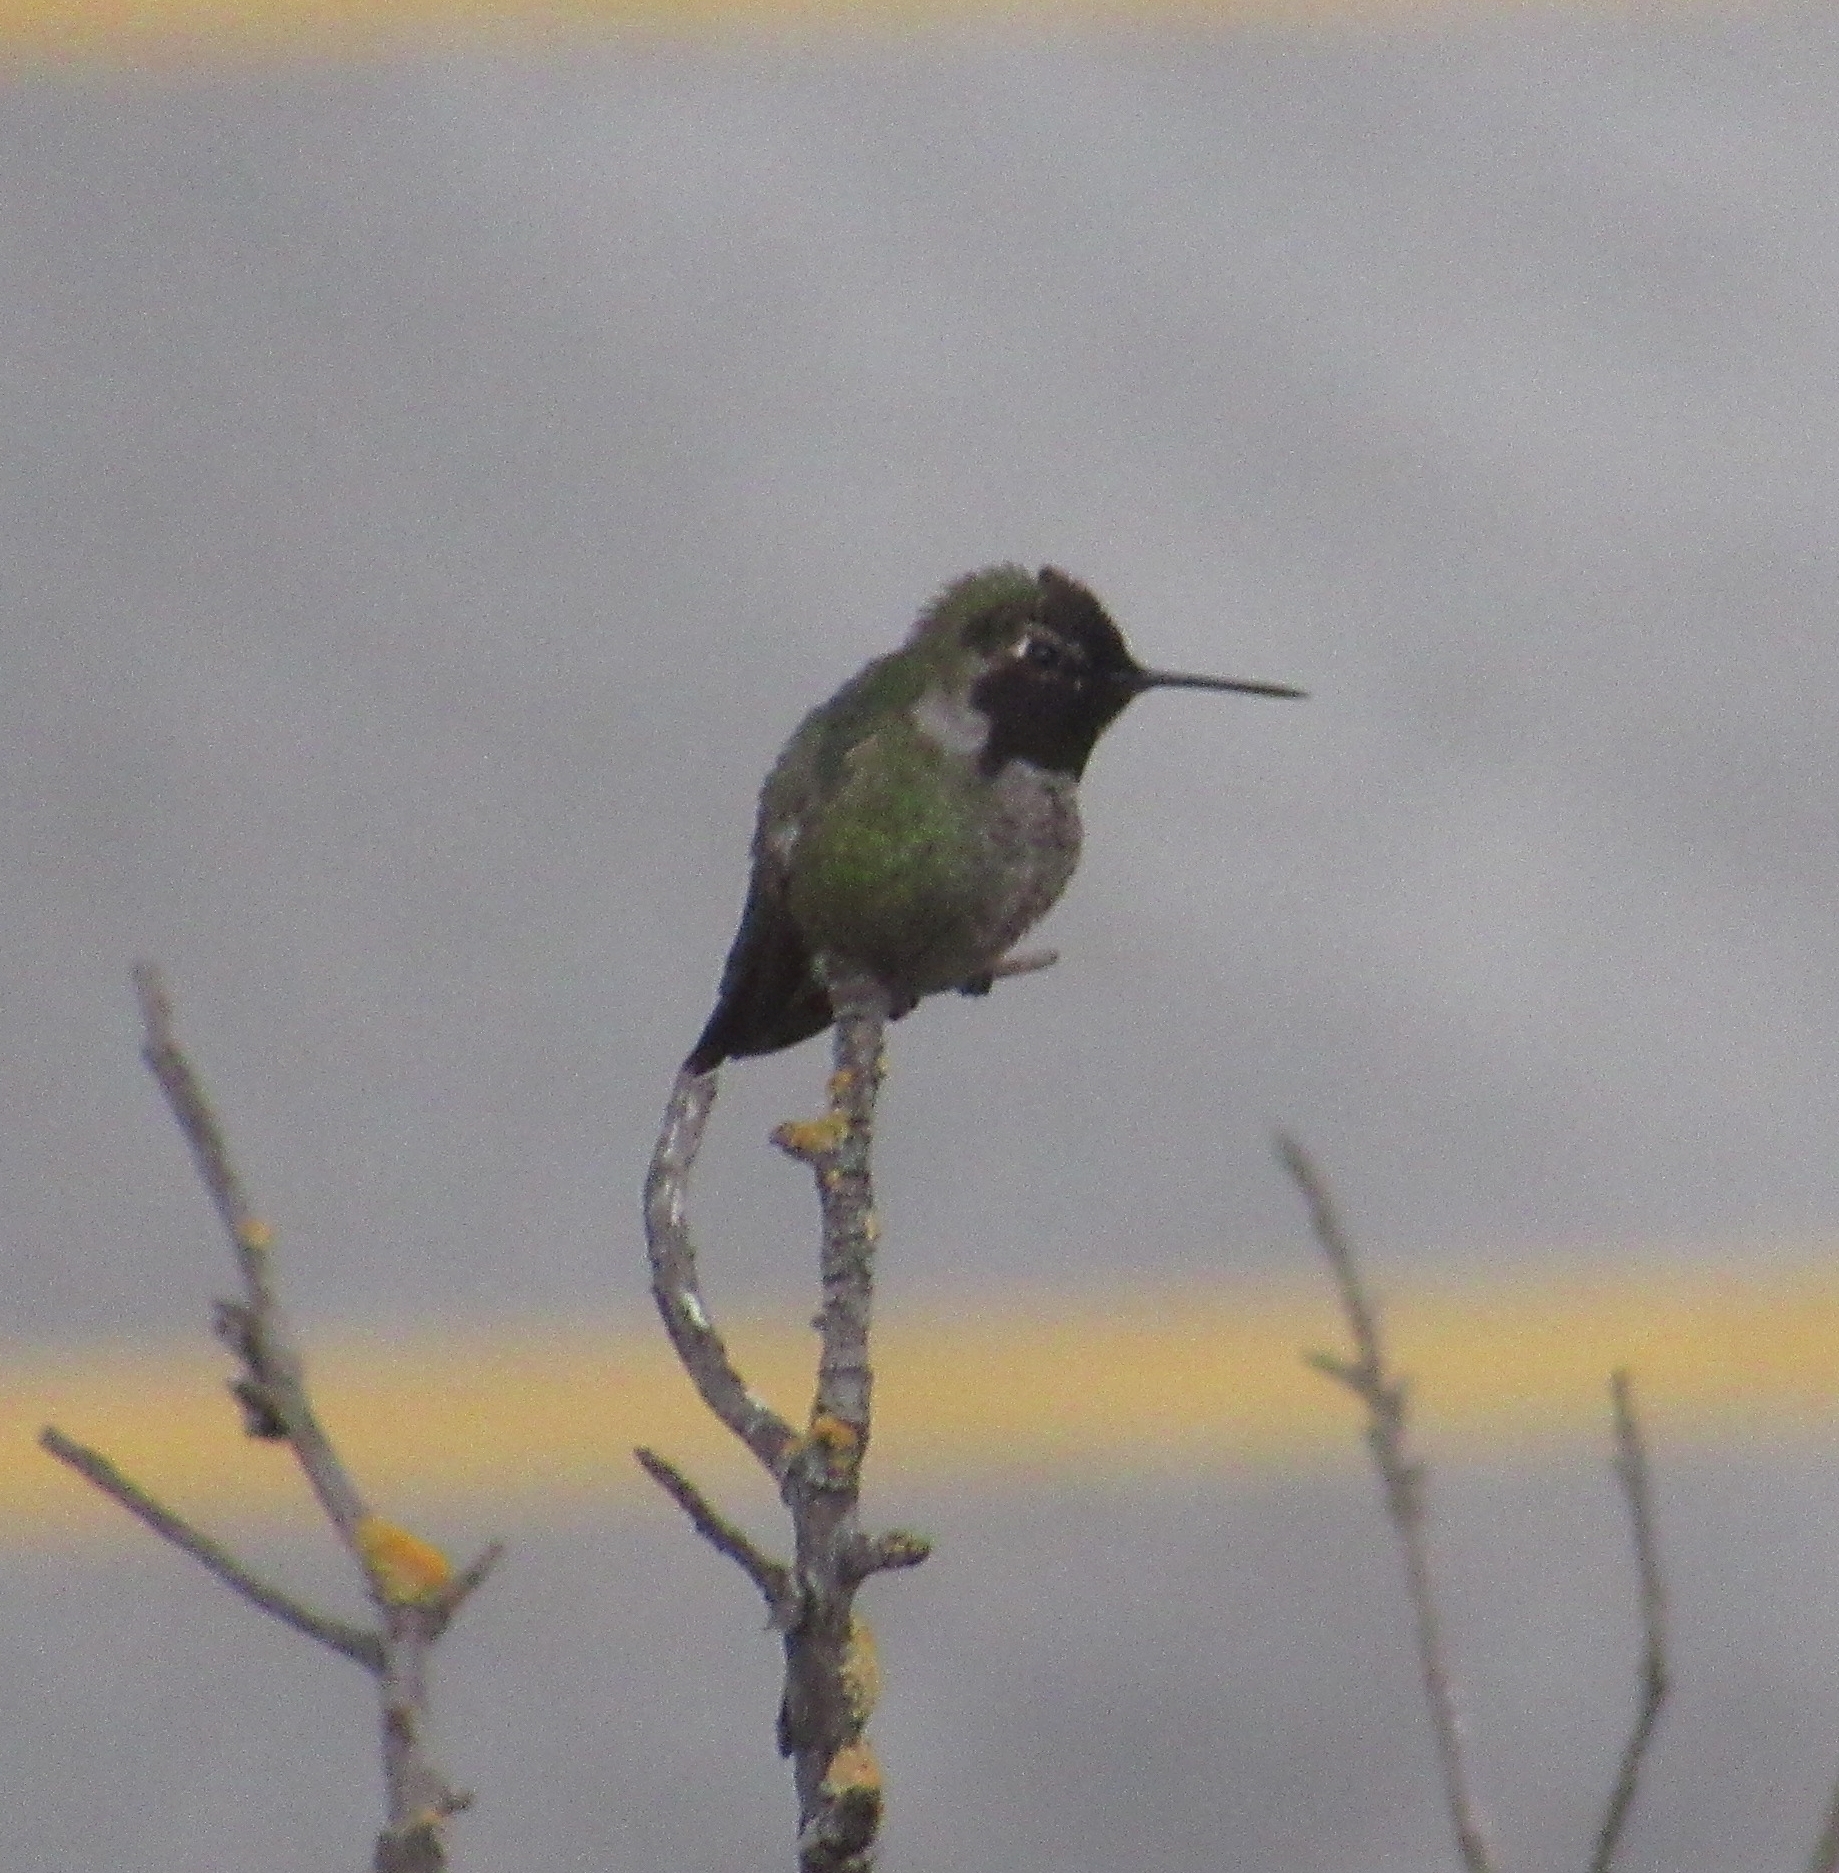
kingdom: Animalia
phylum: Chordata
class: Aves
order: Apodiformes
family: Trochilidae
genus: Calypte
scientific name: Calypte anna
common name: Anna's hummingbird
